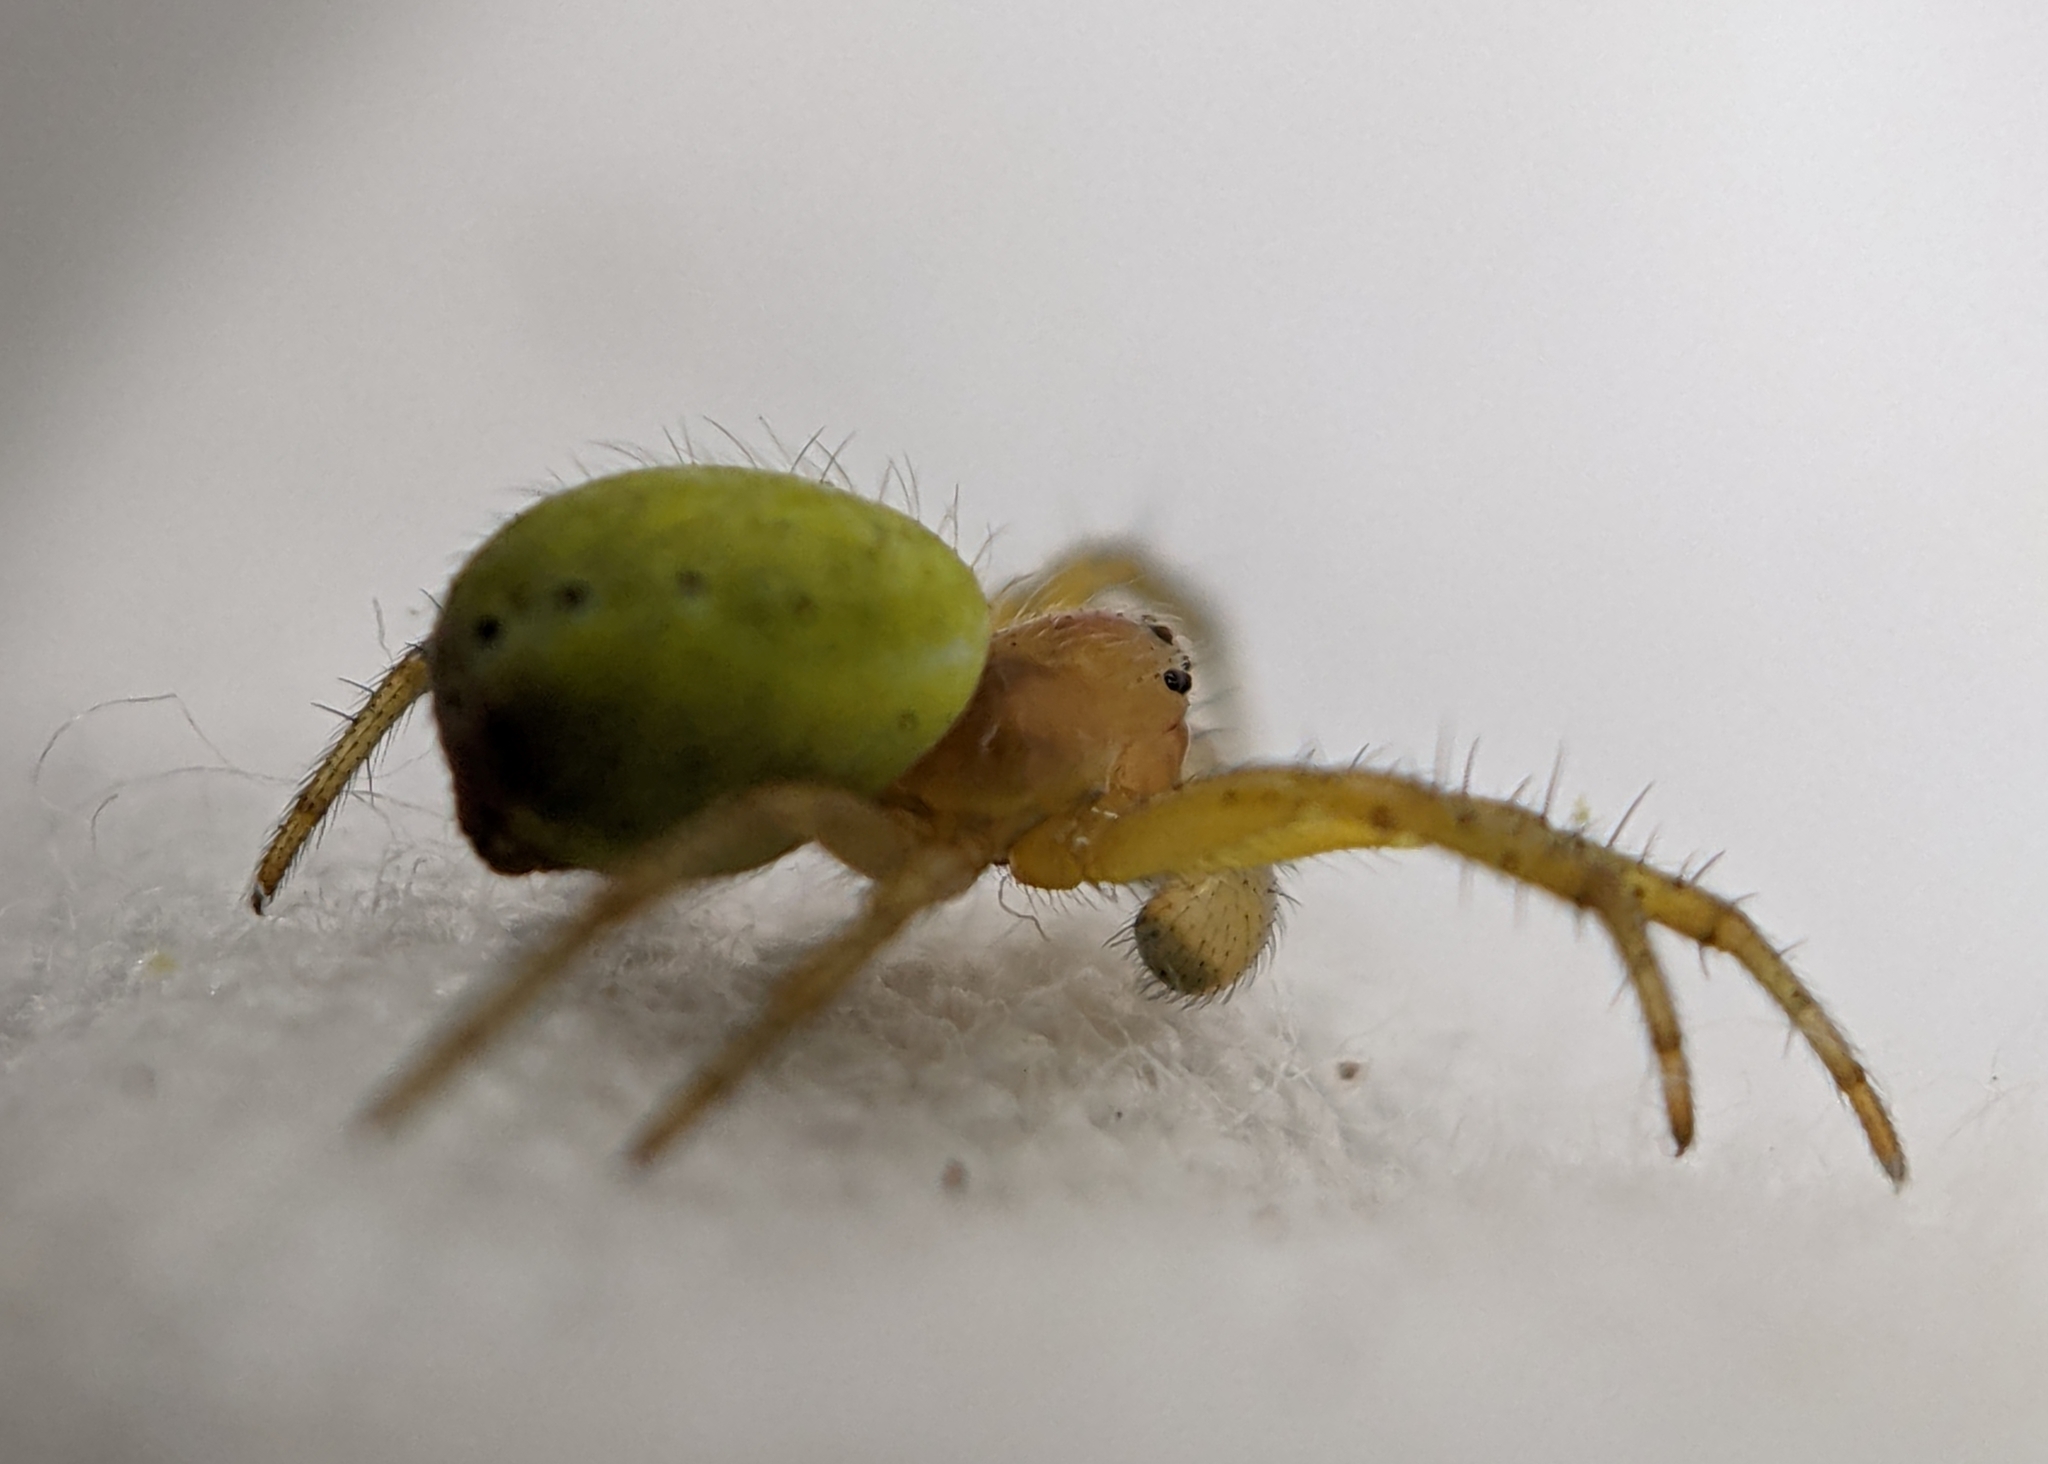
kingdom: Animalia
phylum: Arthropoda
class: Arachnida
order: Araneae
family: Araneidae
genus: Araniella
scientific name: Araniella
